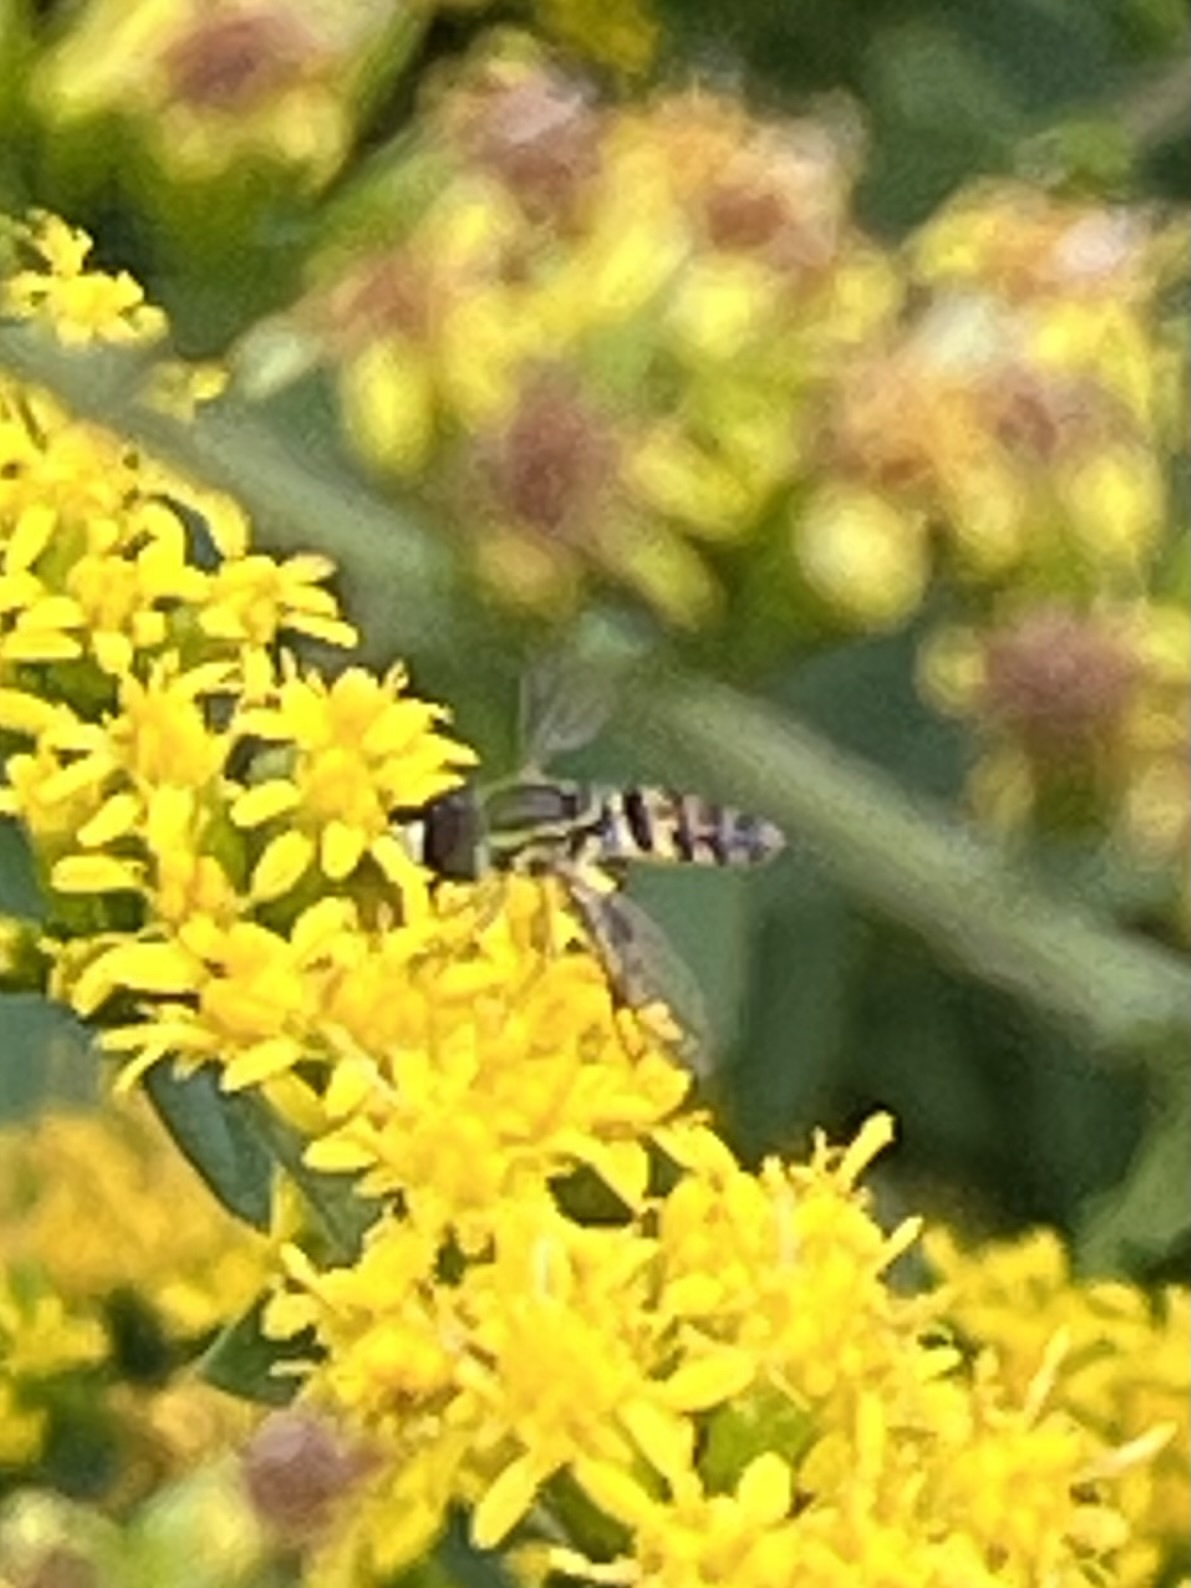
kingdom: Animalia
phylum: Arthropoda
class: Insecta
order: Diptera
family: Syrphidae
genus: Toxomerus
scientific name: Toxomerus geminatus
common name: Eastern calligrapher
